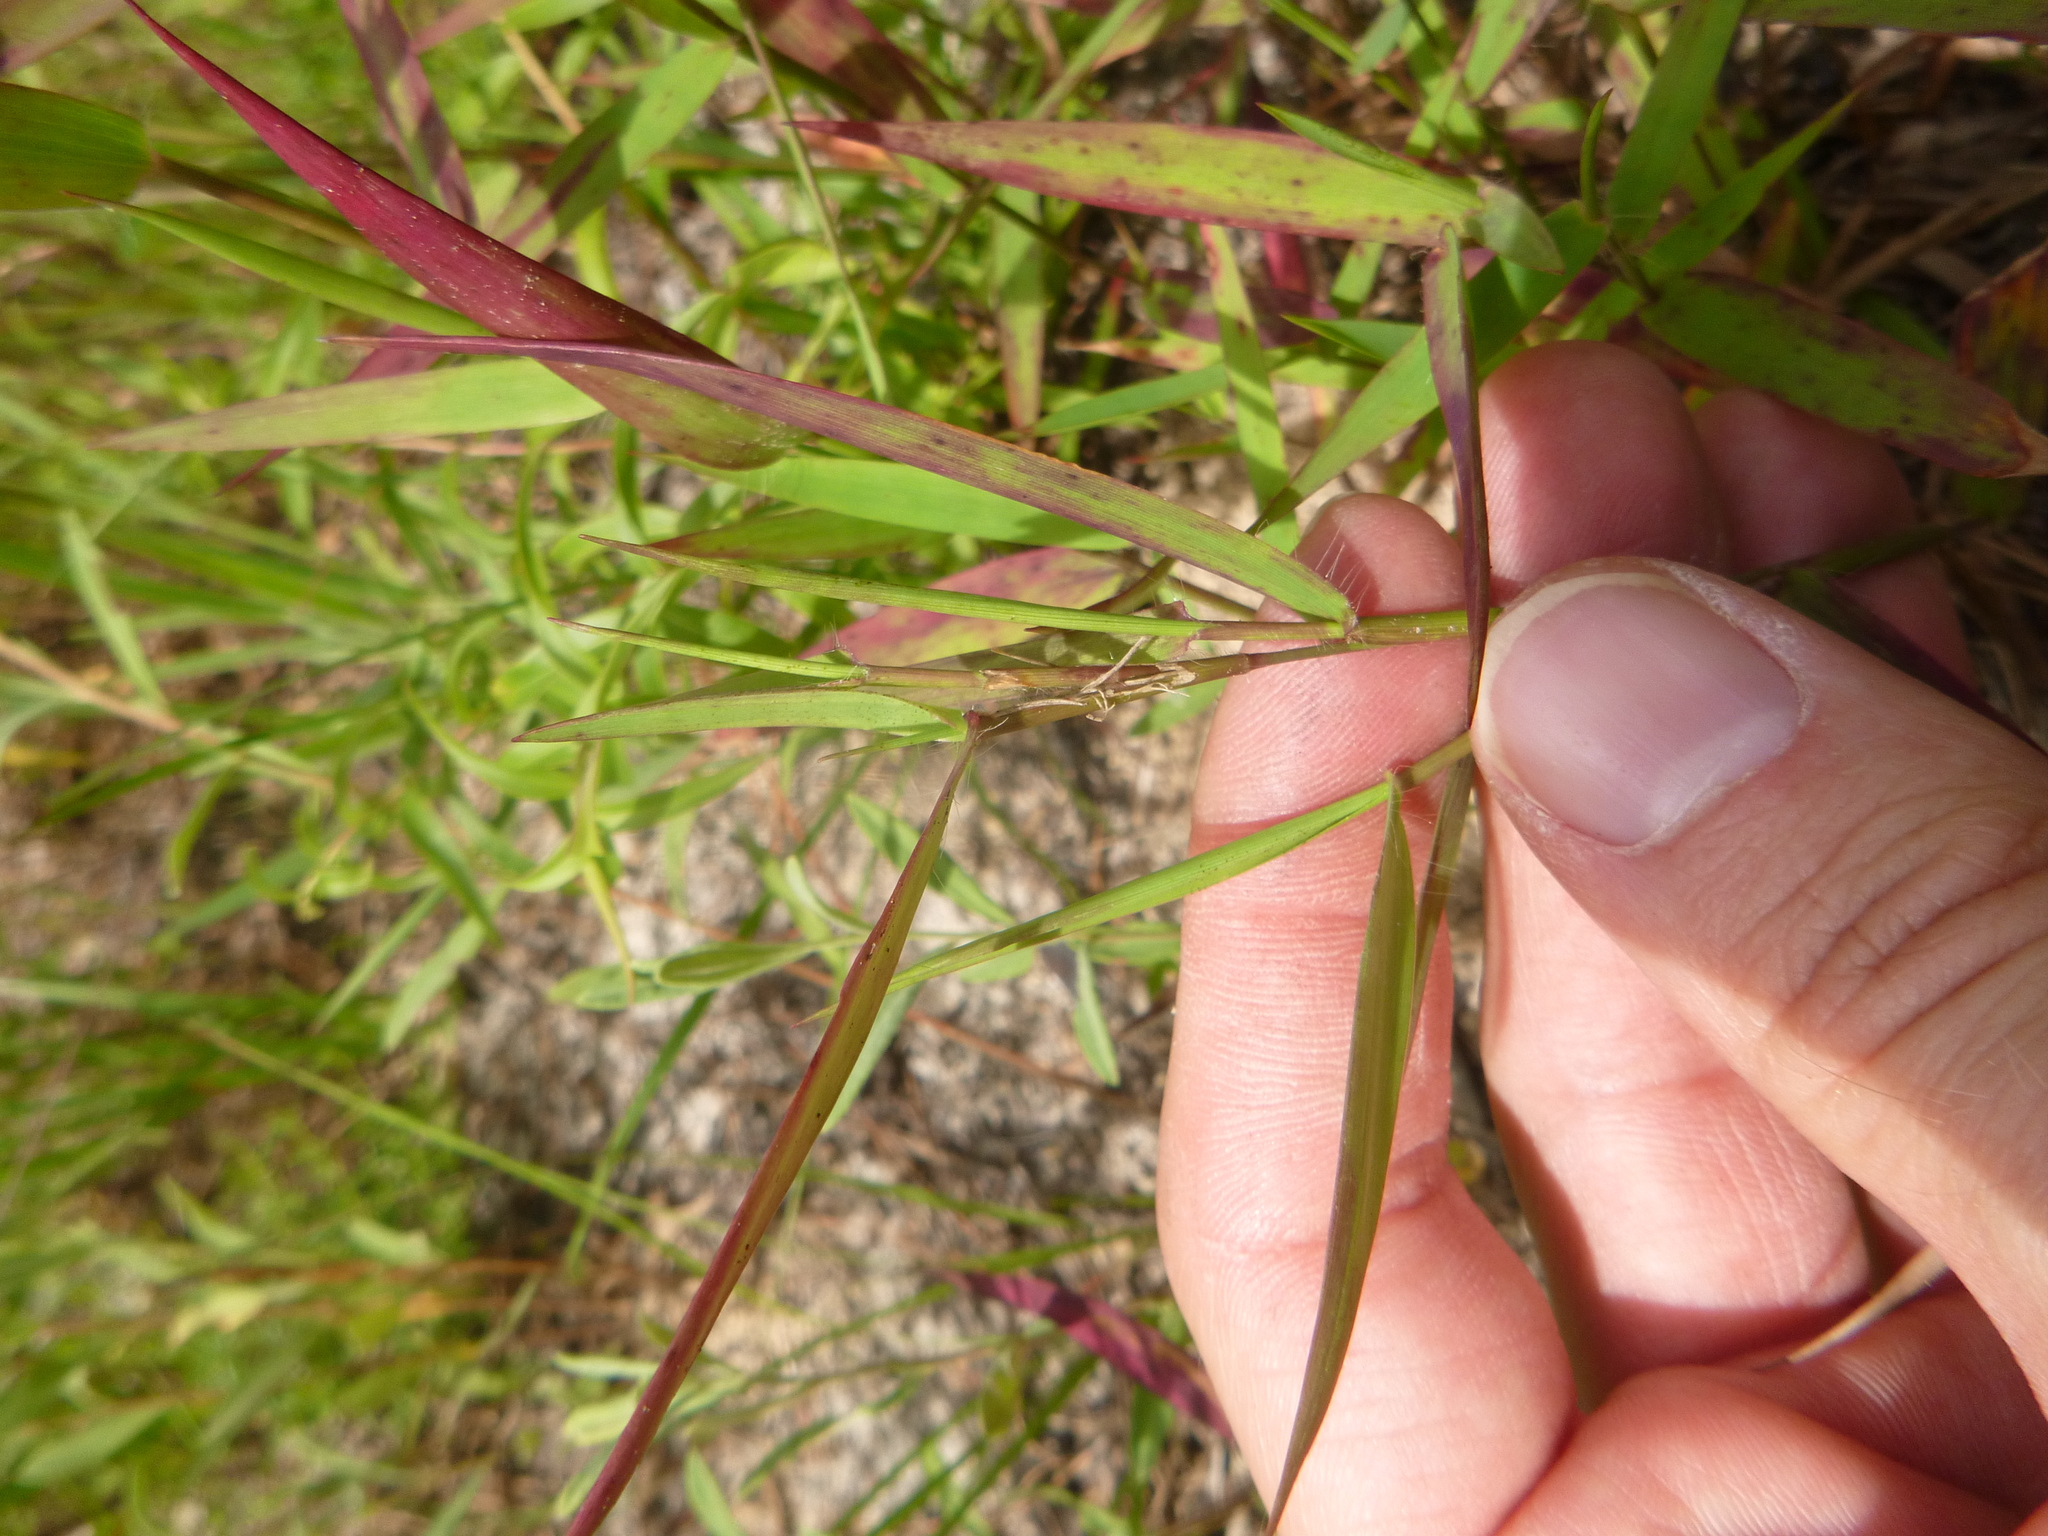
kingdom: Plantae
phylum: Tracheophyta
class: Liliopsida
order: Poales
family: Poaceae
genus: Dichanthelium
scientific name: Dichanthelium commutatum
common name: Variable witchgrass
